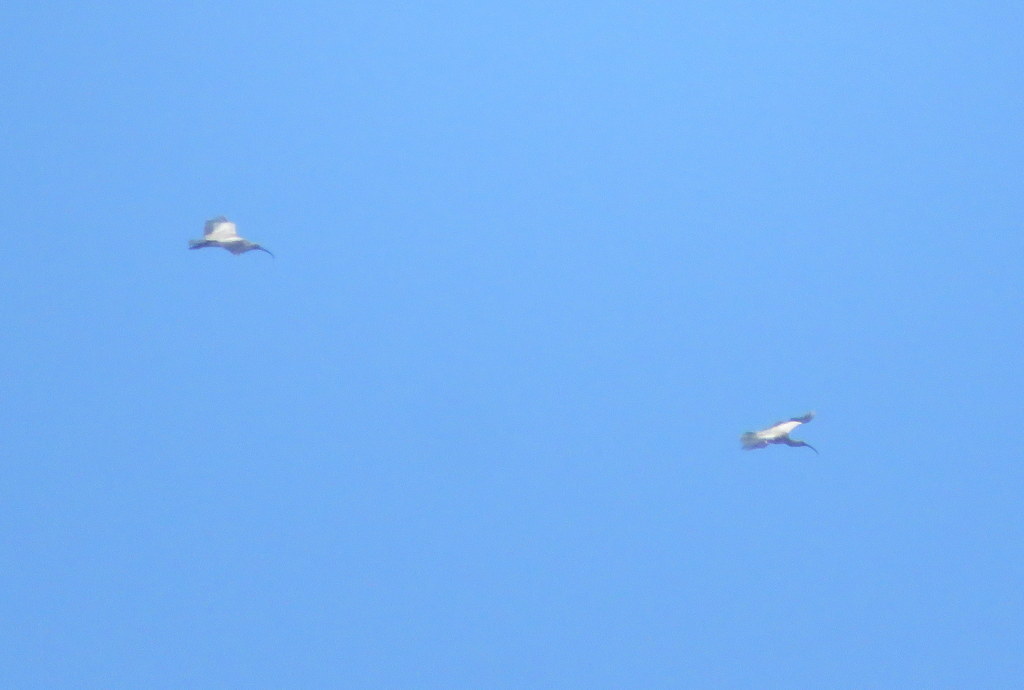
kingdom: Animalia
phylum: Chordata
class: Aves
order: Pelecaniformes
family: Threskiornithidae
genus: Theristicus
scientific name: Theristicus caerulescens
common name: Plumbeous ibis
